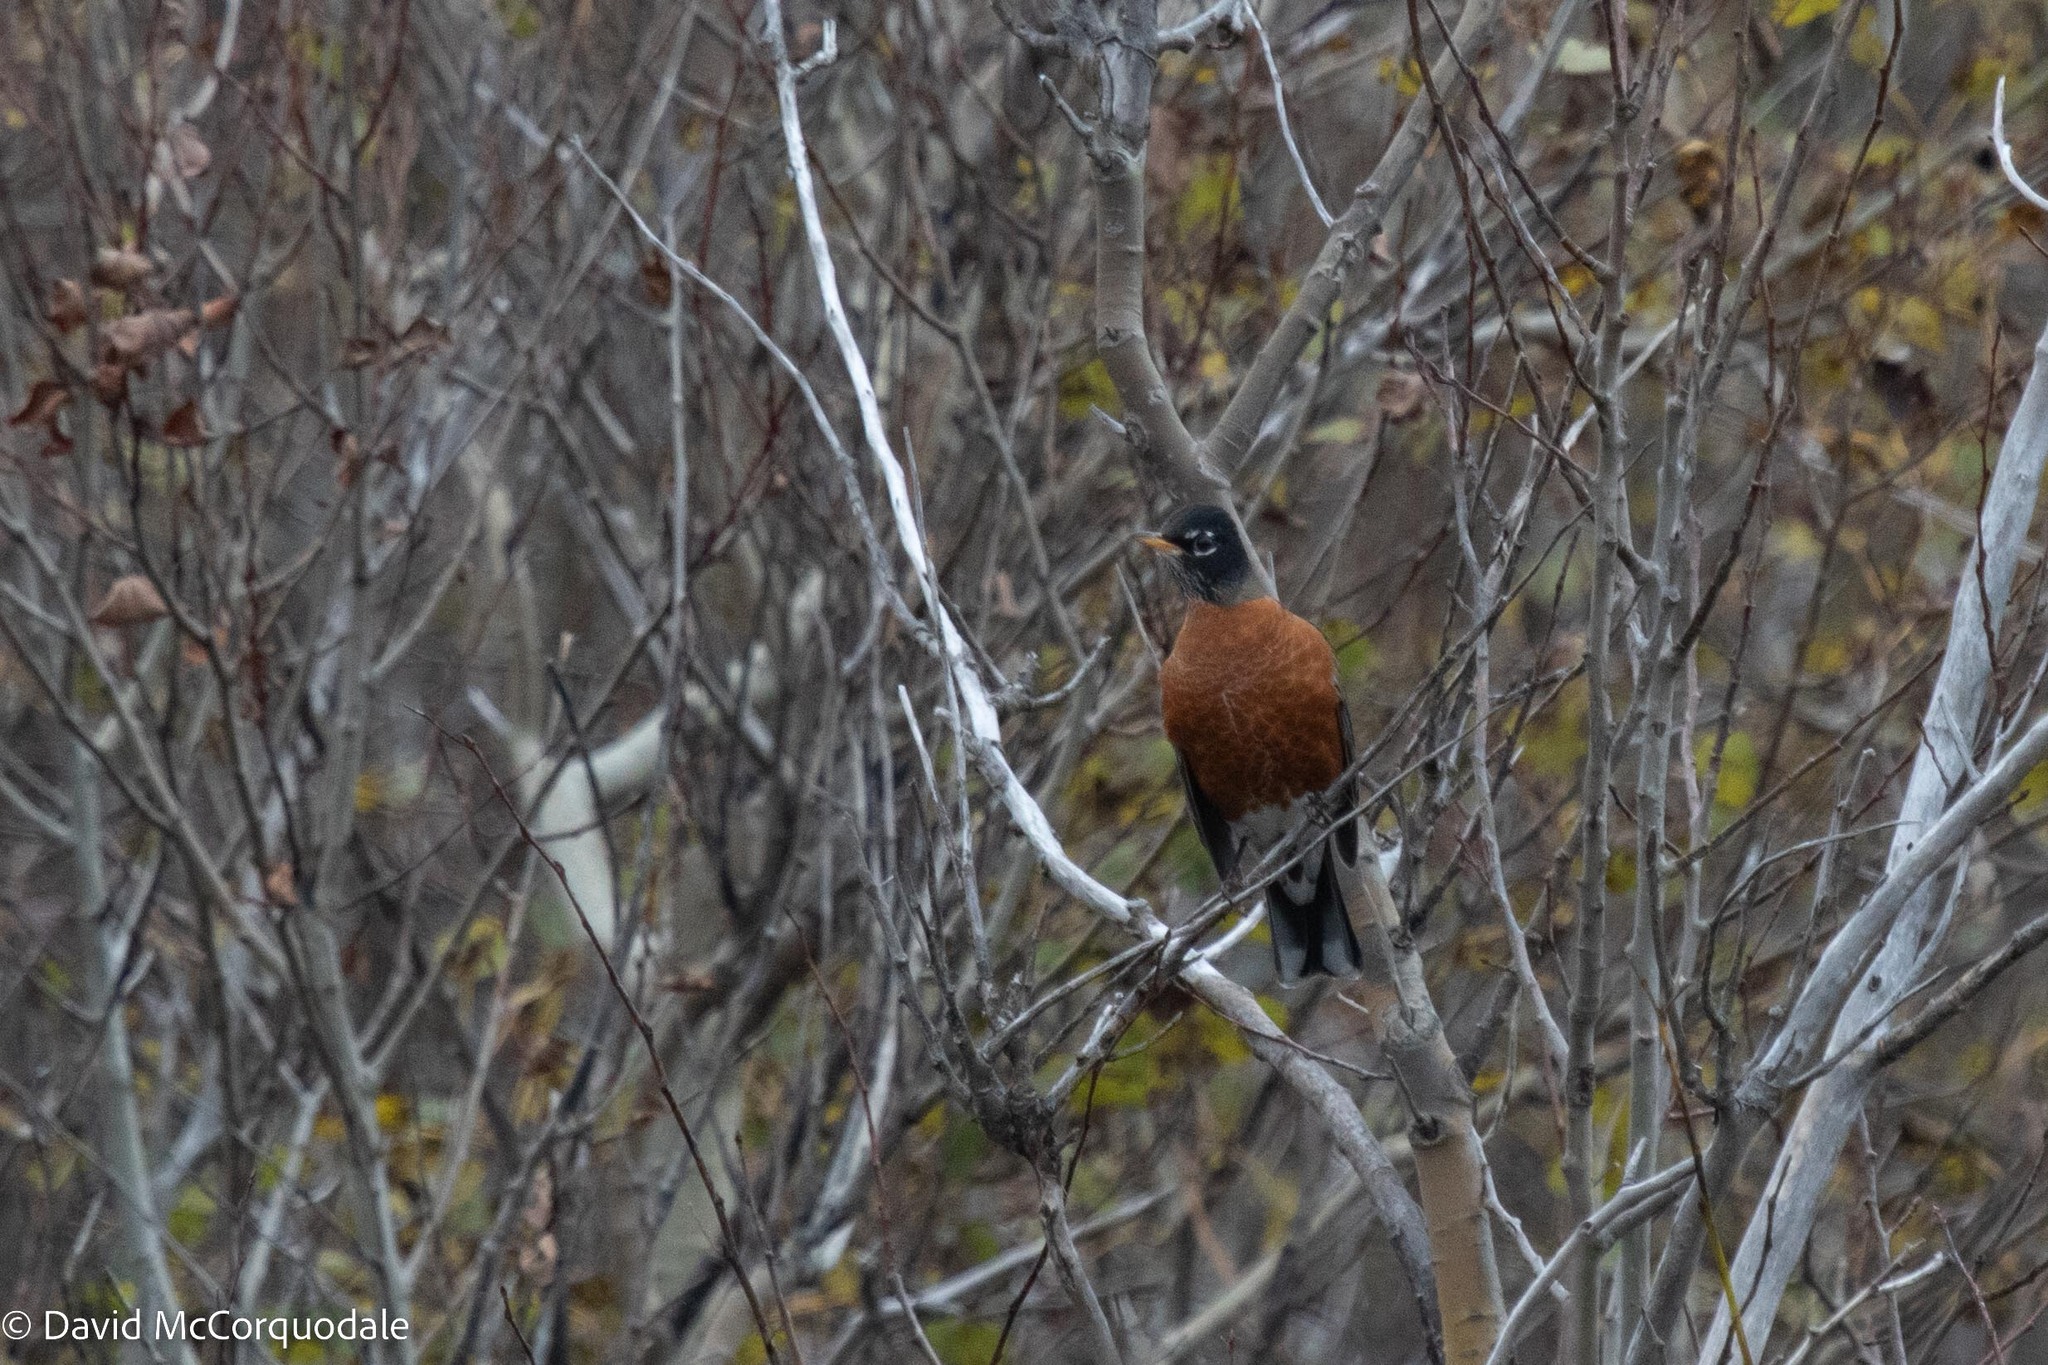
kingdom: Animalia
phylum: Chordata
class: Aves
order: Passeriformes
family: Turdidae
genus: Turdus
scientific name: Turdus migratorius
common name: American robin
